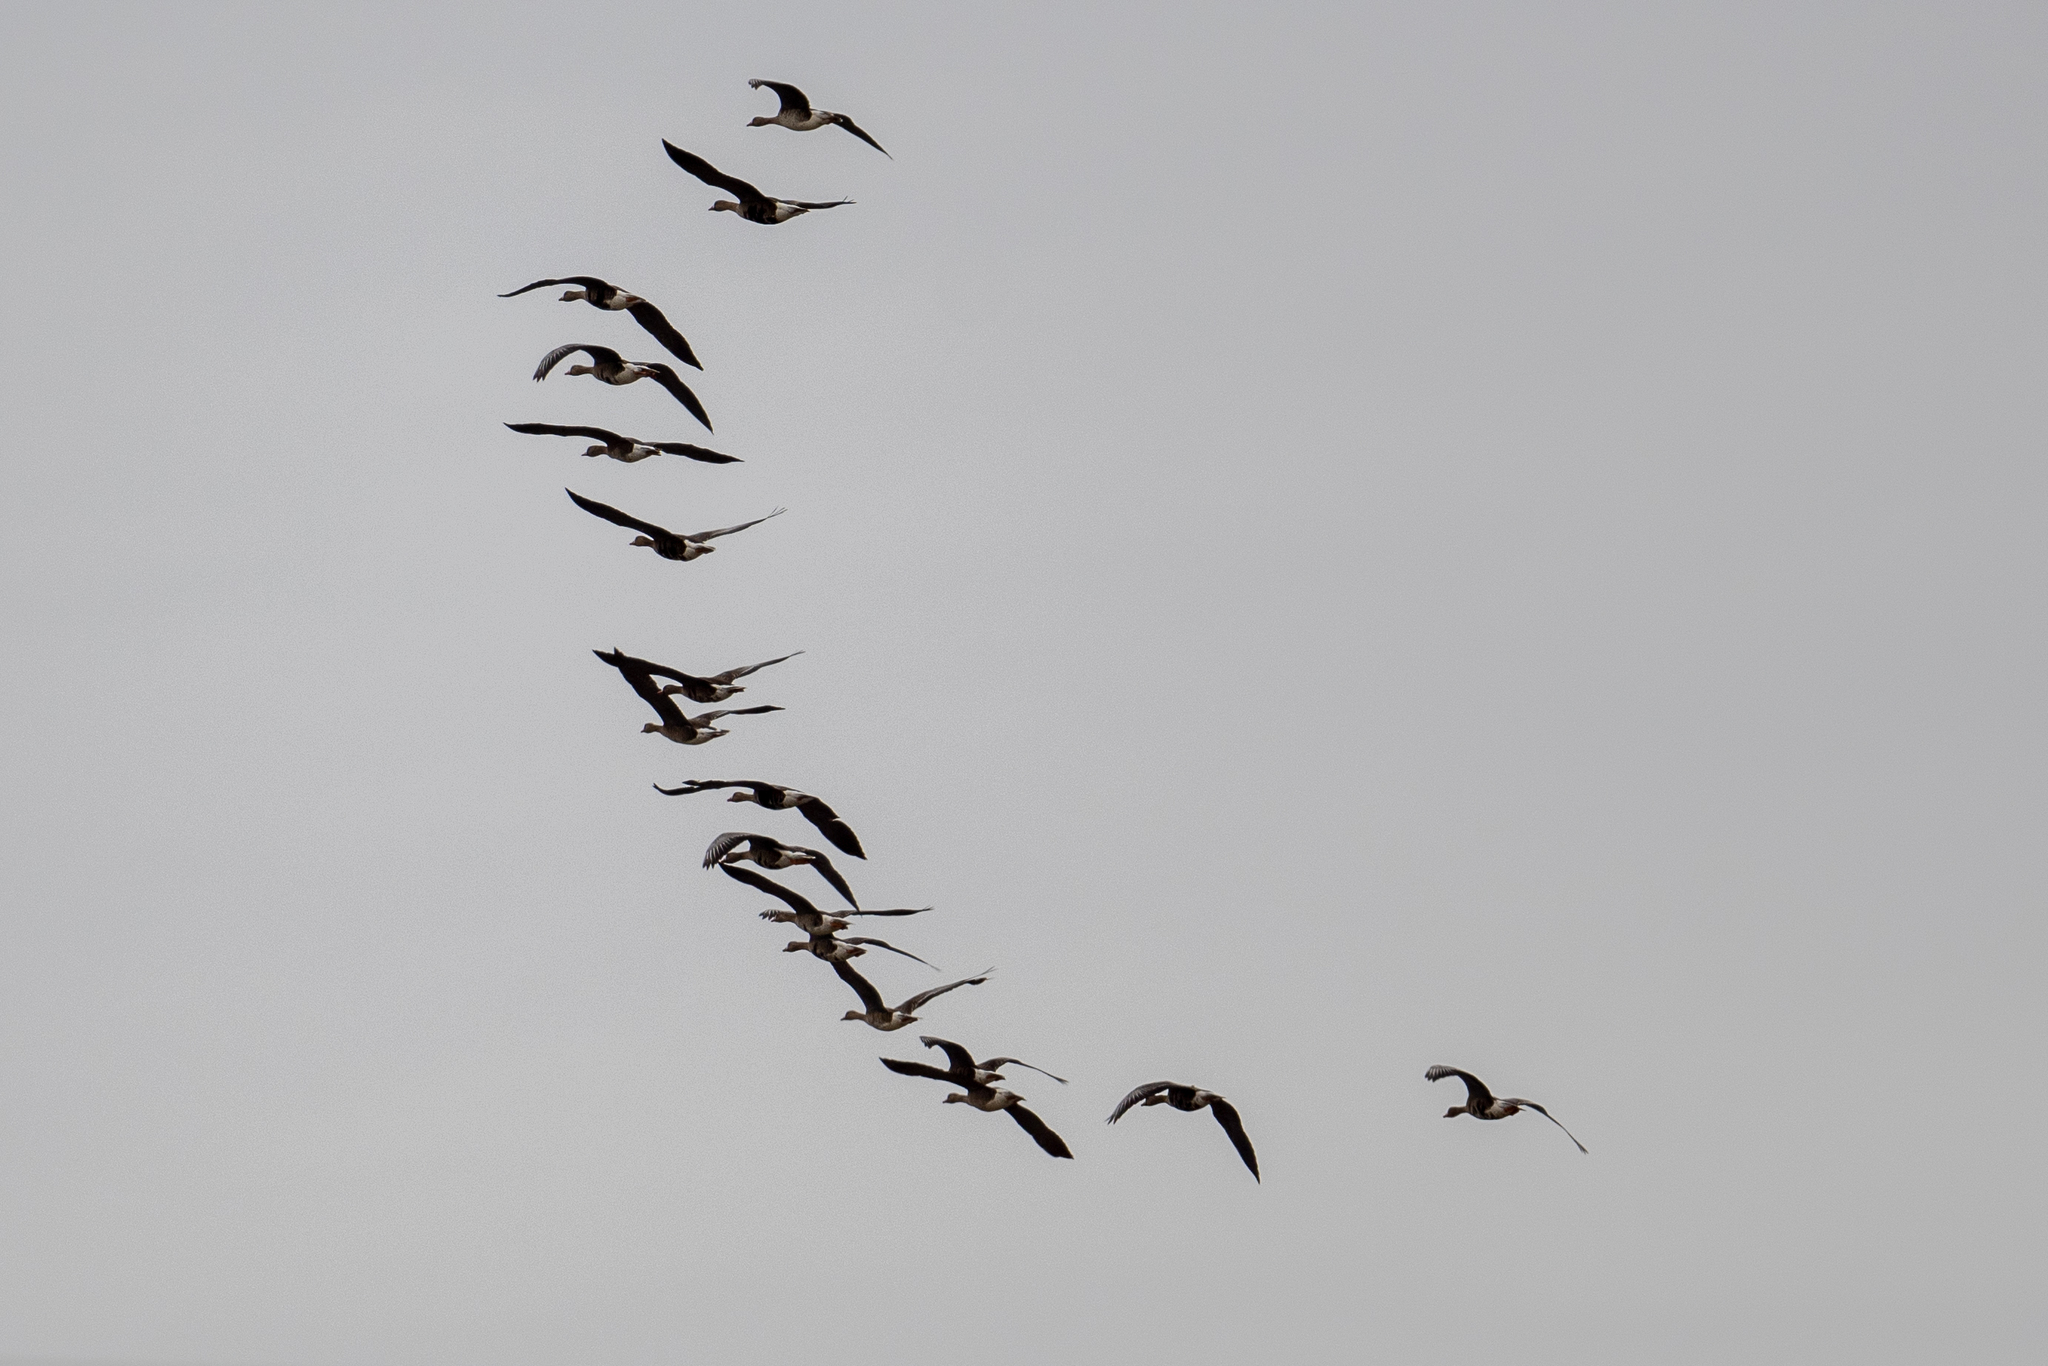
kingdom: Animalia
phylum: Chordata
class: Aves
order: Anseriformes
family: Anatidae
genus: Anser
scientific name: Anser albifrons
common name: Greater white-fronted goose
